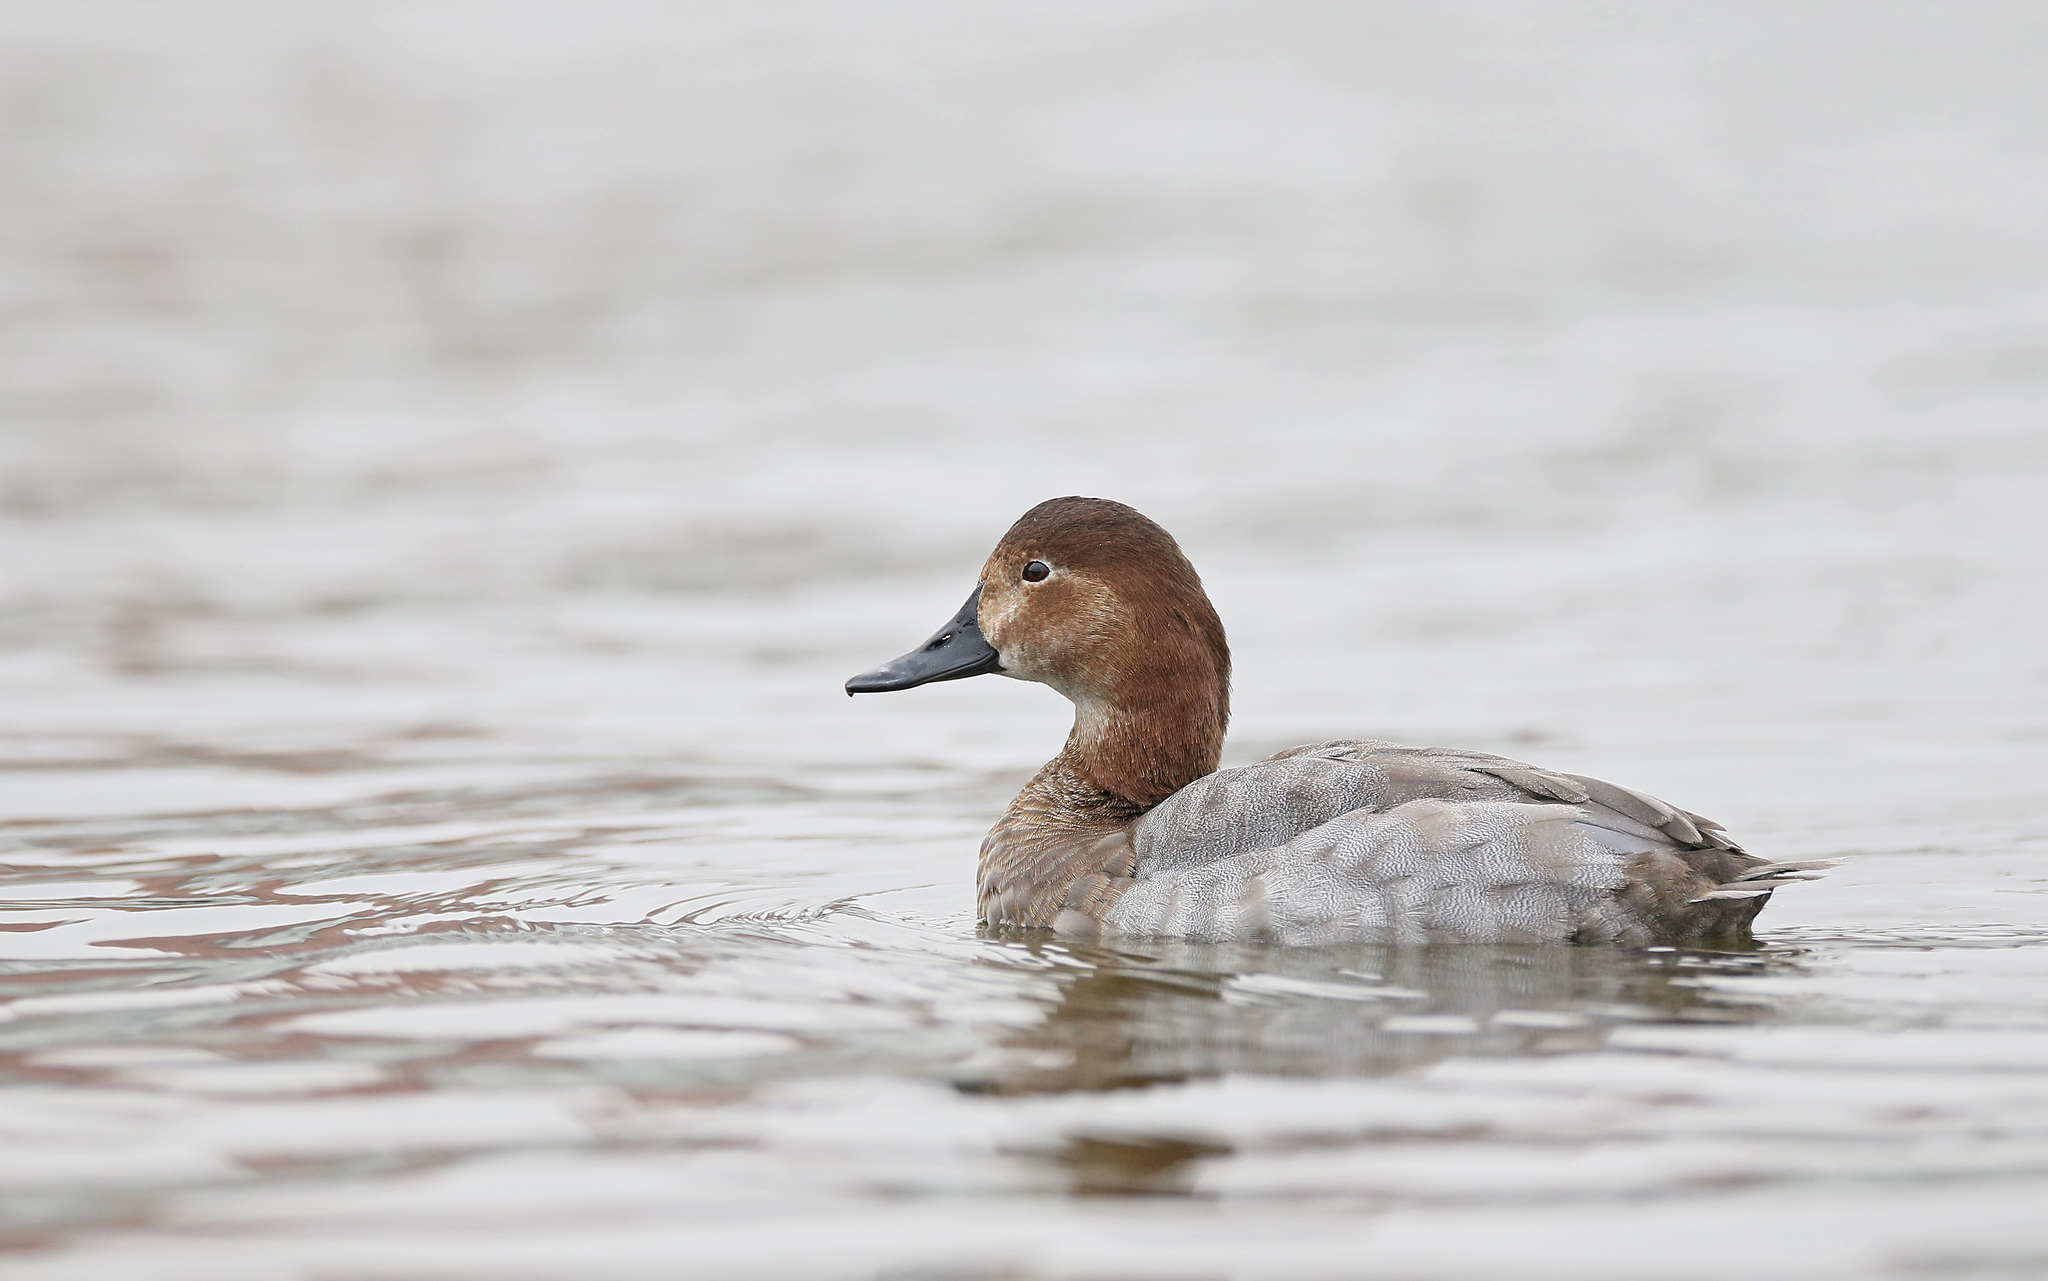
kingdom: Animalia
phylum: Chordata
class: Aves
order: Anseriformes
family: Anatidae
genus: Aythya
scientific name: Aythya ferina
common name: Common pochard
